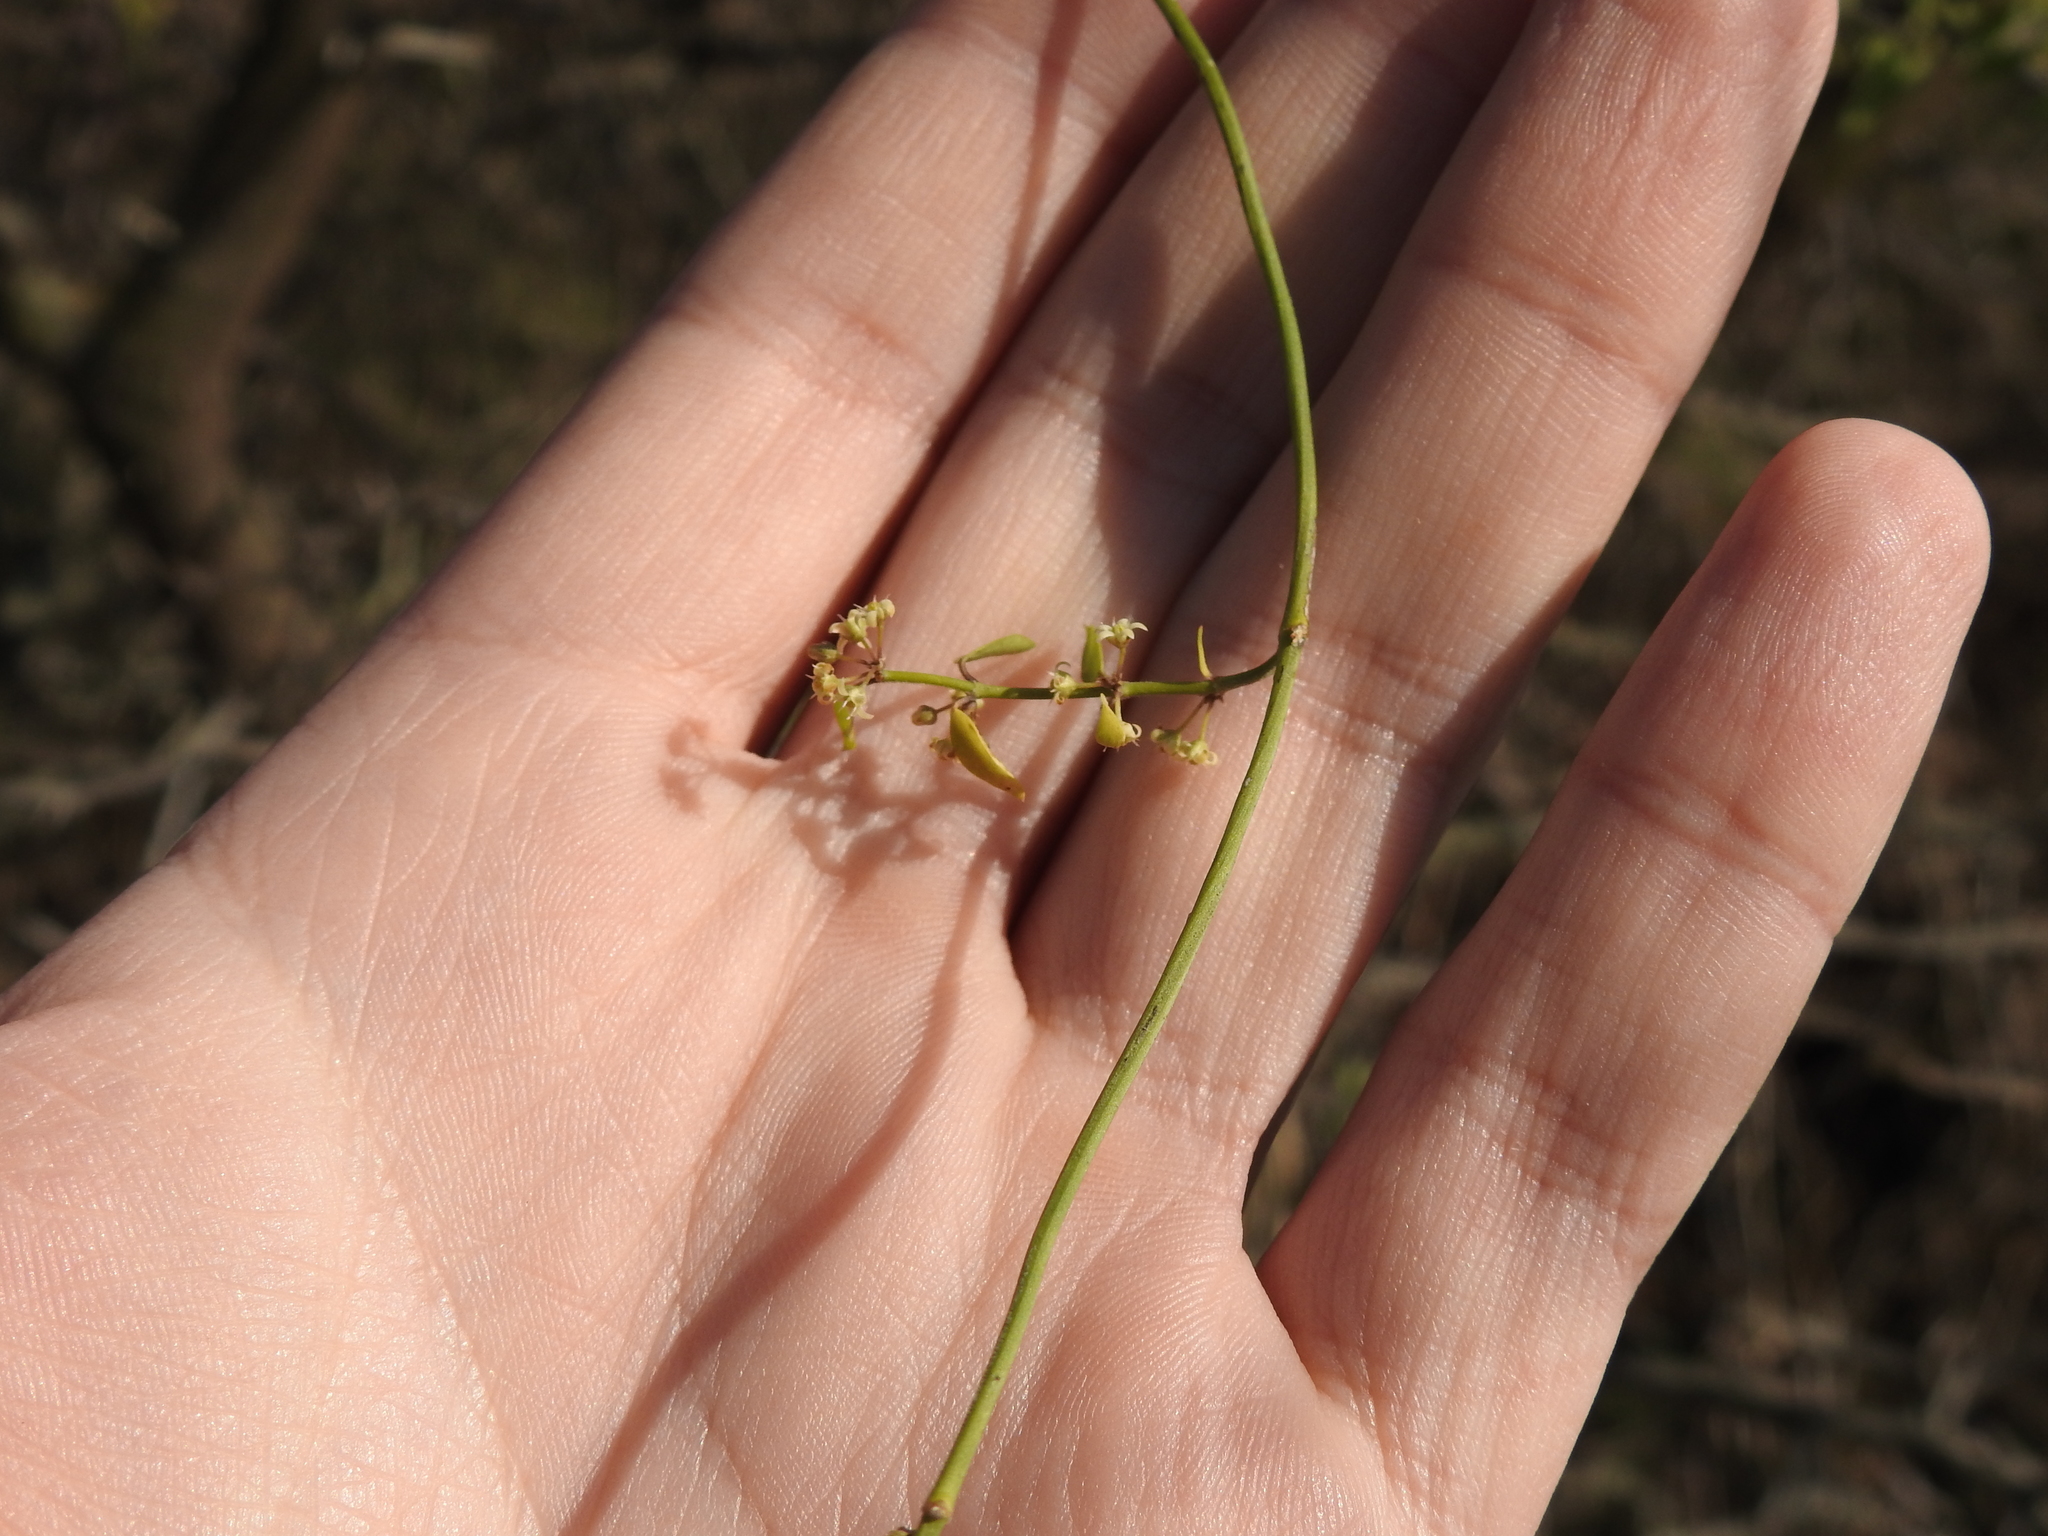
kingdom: Plantae
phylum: Tracheophyta
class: Magnoliopsida
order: Gentianales
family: Apocynaceae
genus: Orthosia
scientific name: Orthosia virgata
